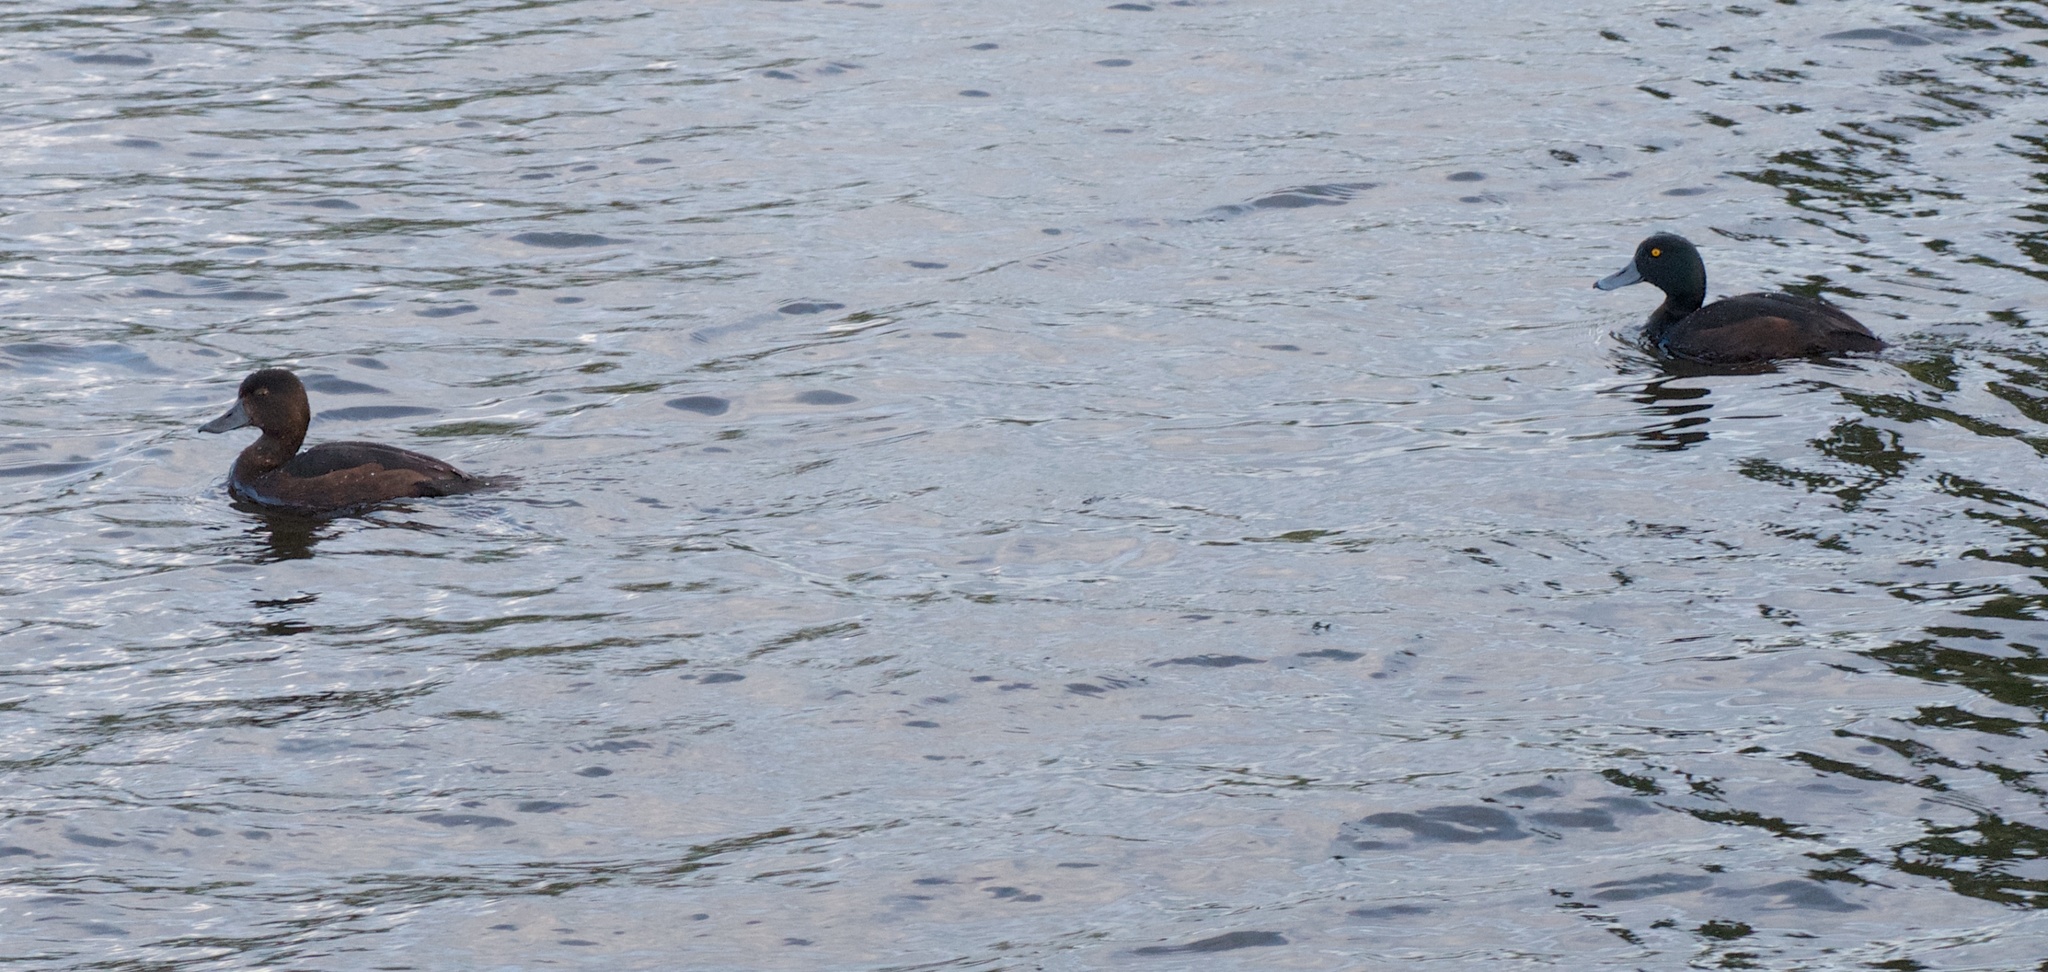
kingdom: Animalia
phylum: Chordata
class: Aves
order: Anseriformes
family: Anatidae
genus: Aythya
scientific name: Aythya novaeseelandiae
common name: New zealand scaup
